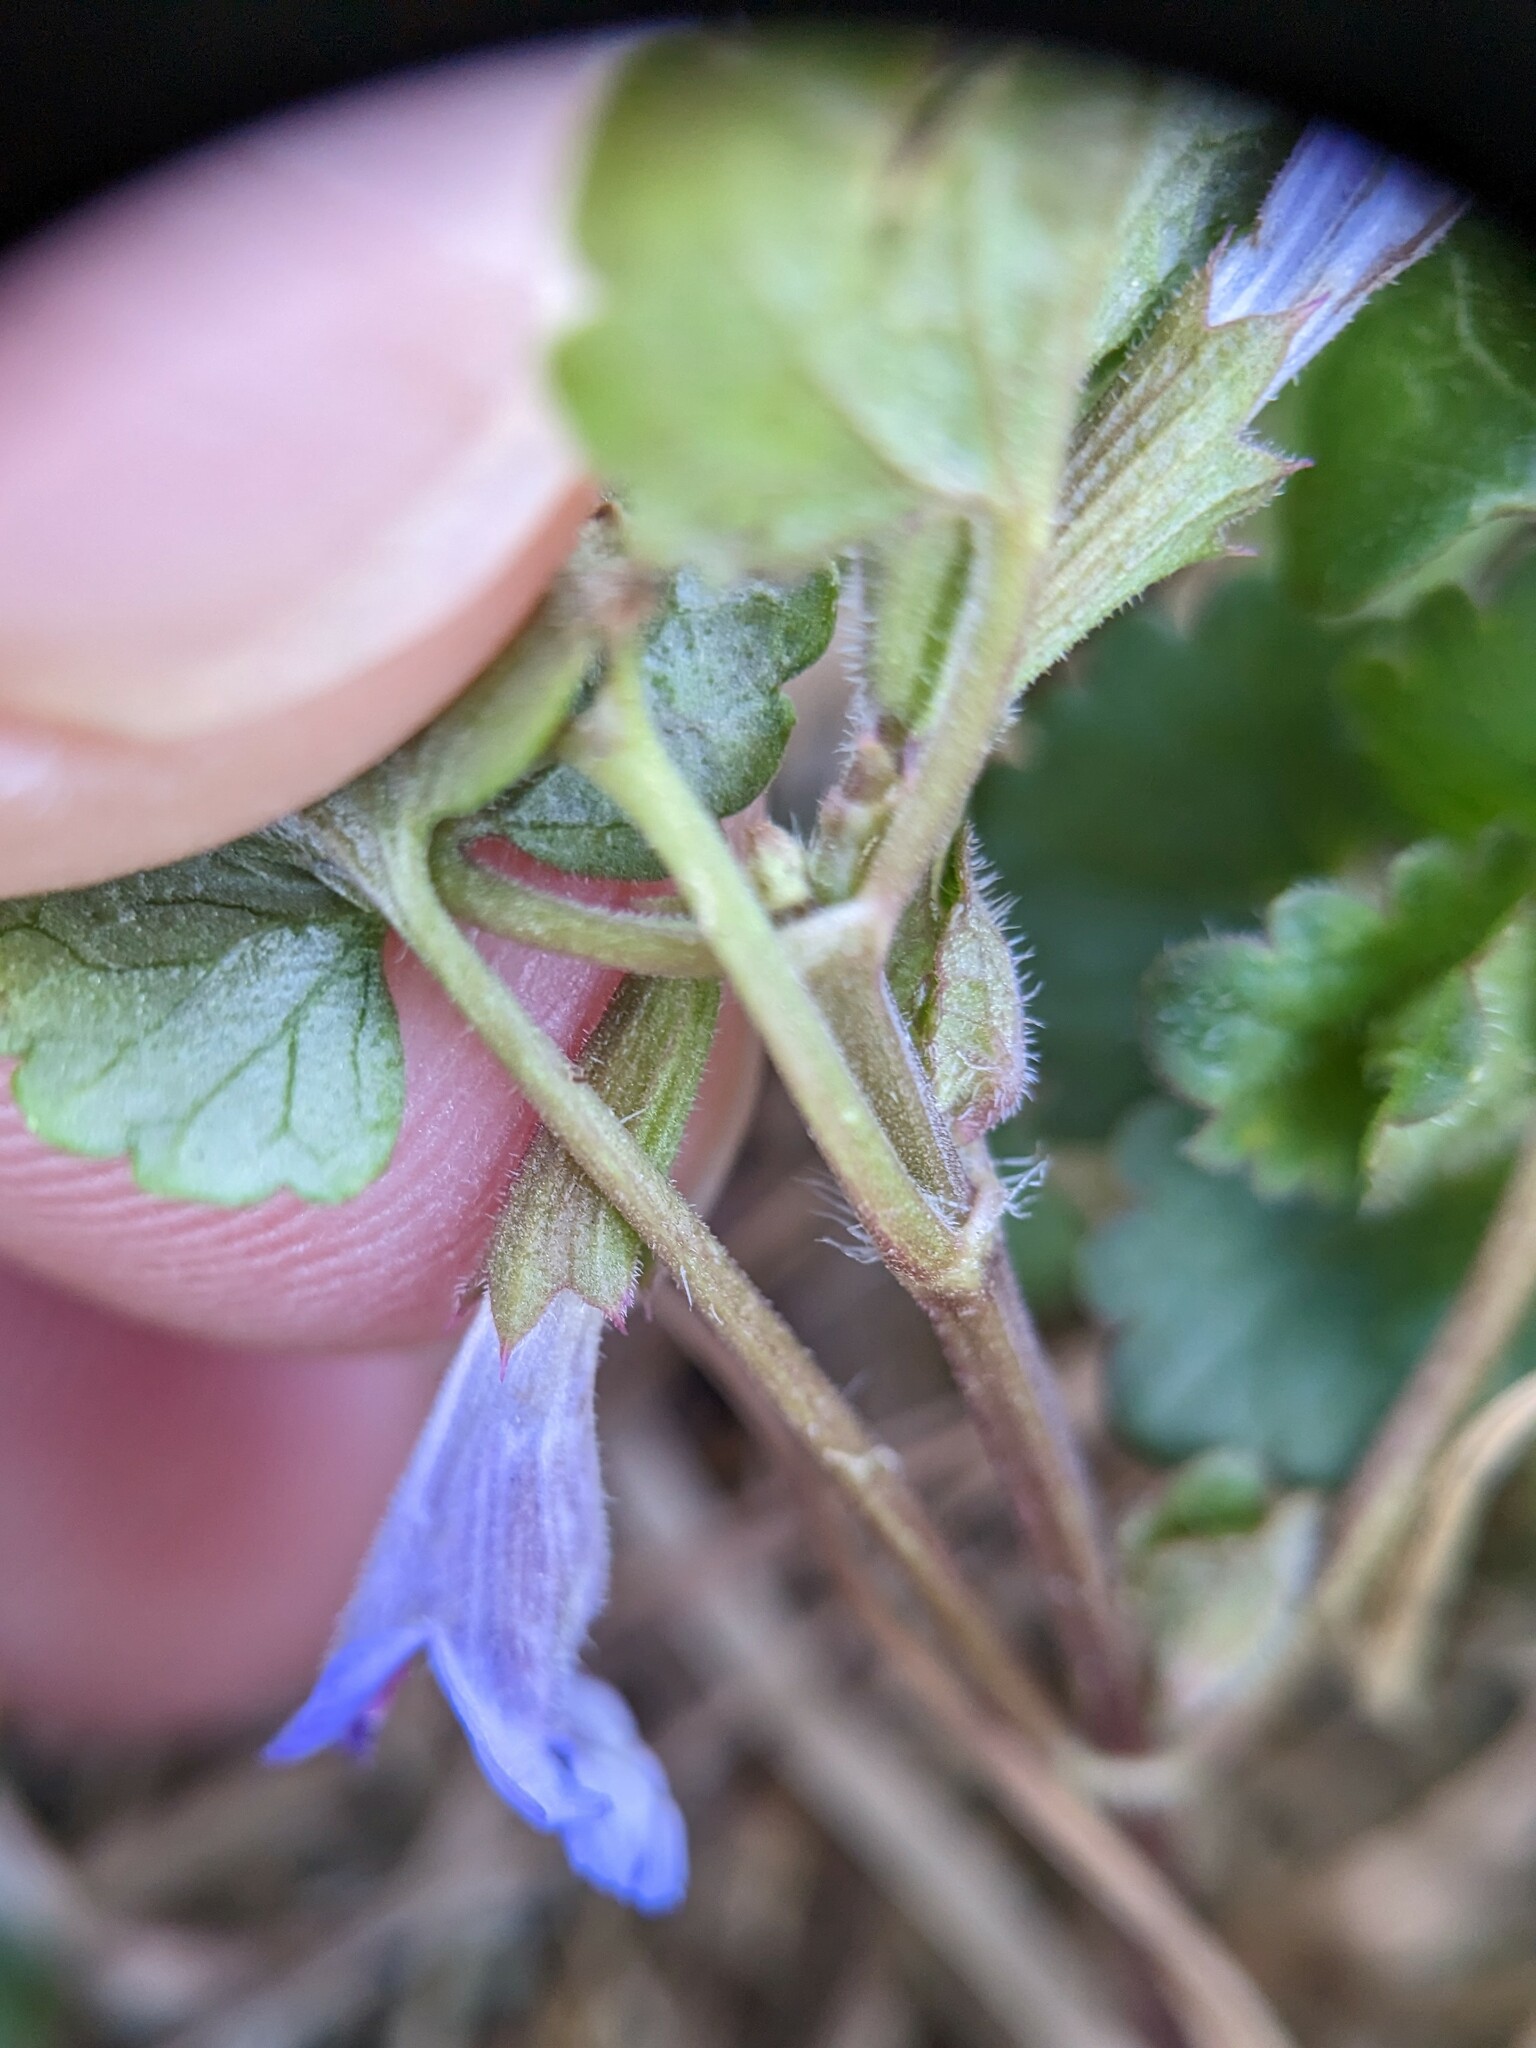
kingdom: Plantae
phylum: Tracheophyta
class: Magnoliopsida
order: Lamiales
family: Lamiaceae
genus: Glechoma
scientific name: Glechoma hederacea
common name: Ground ivy
